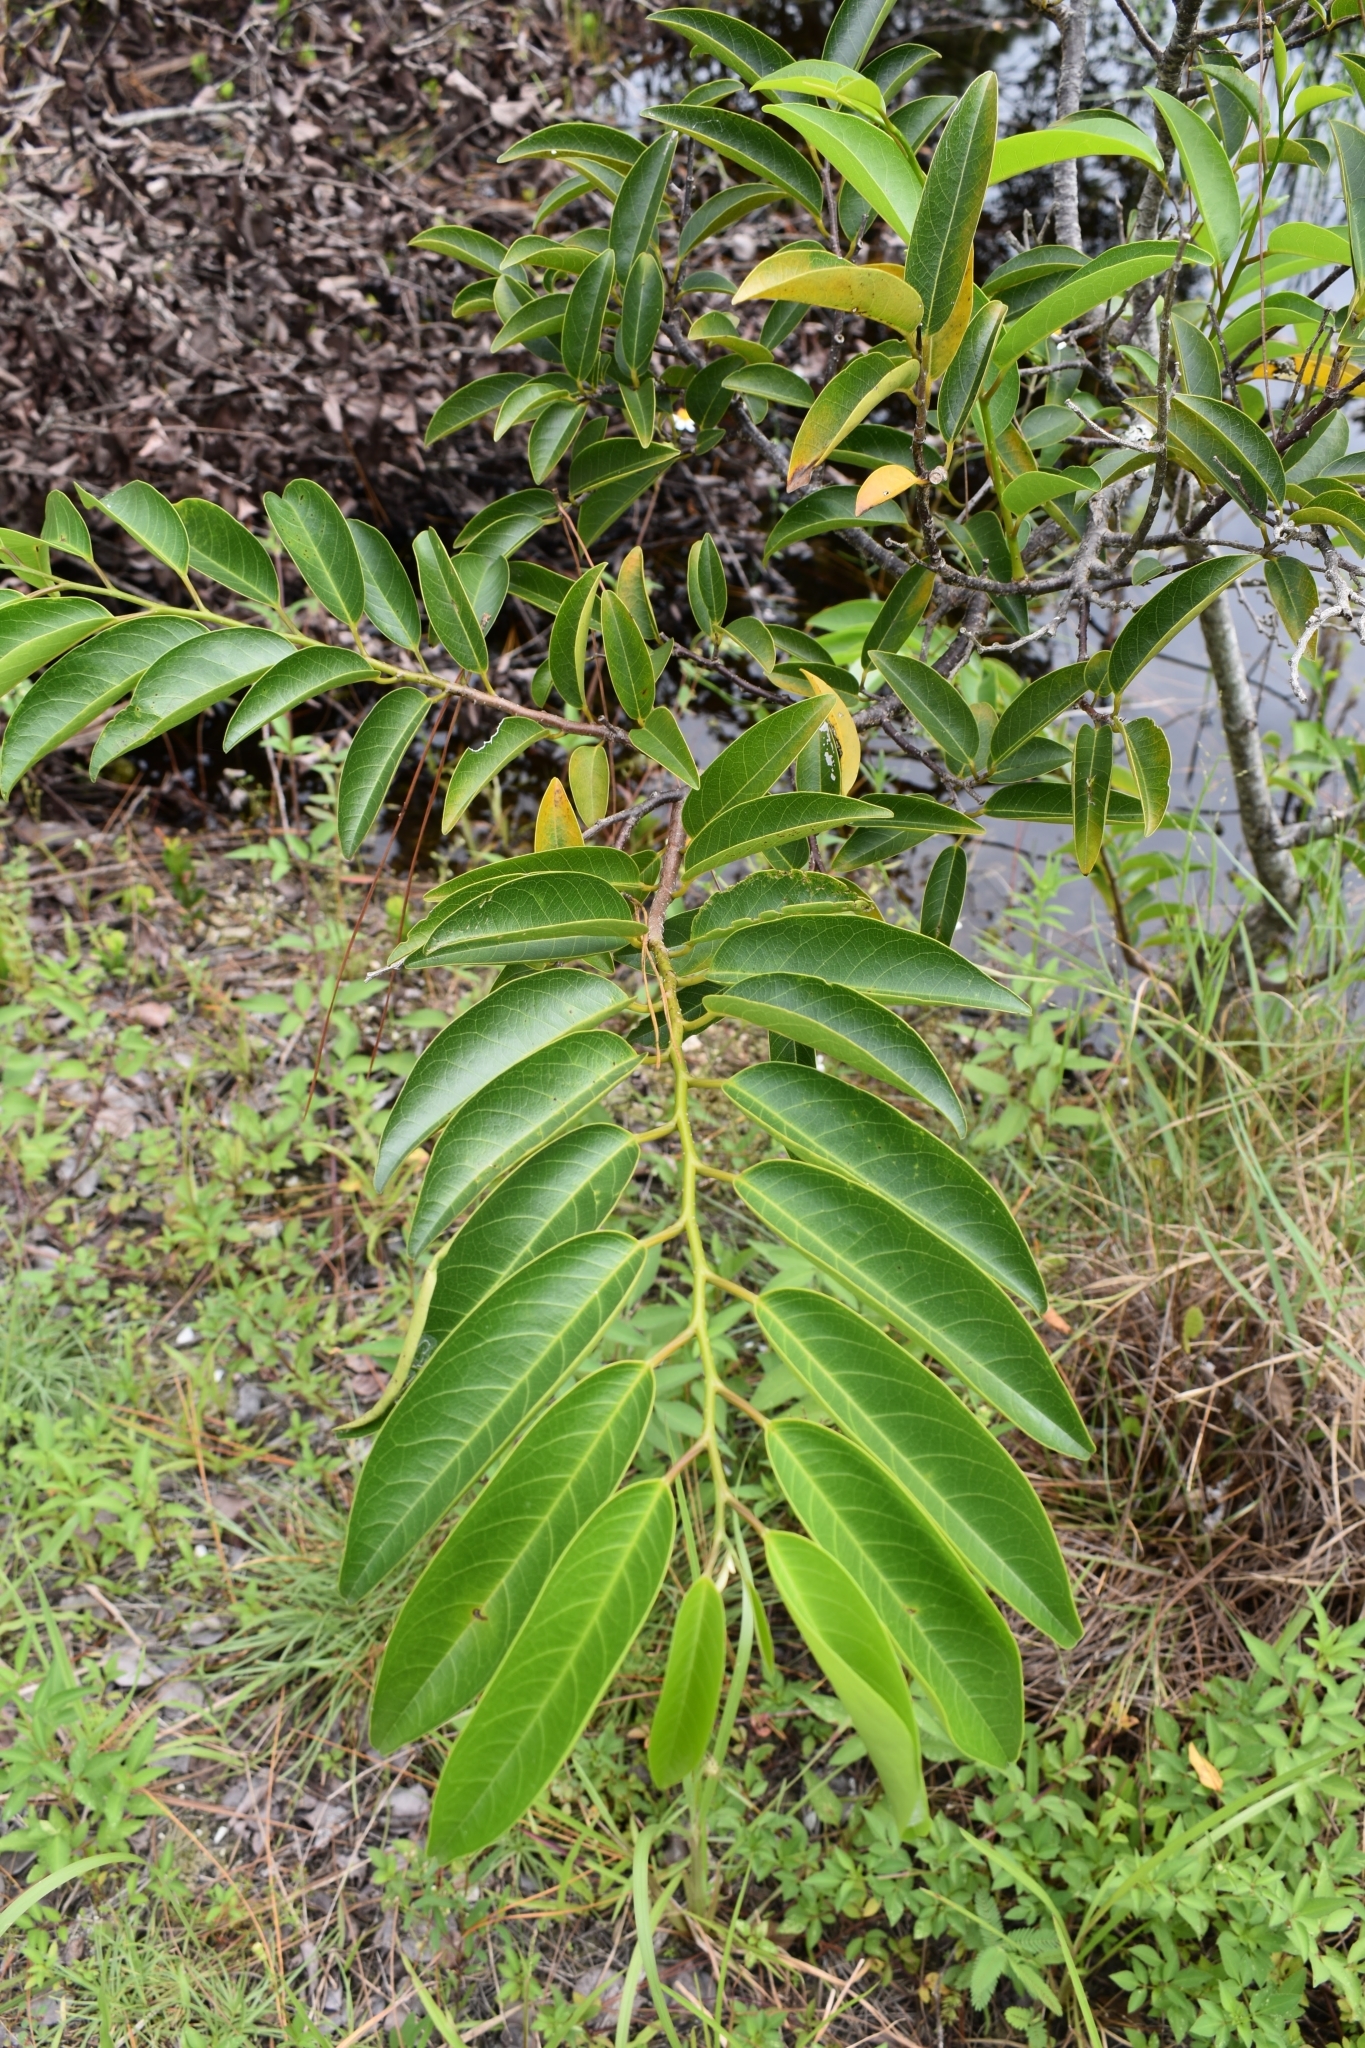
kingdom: Plantae
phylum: Tracheophyta
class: Magnoliopsida
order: Magnoliales
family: Annonaceae
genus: Annona
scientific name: Annona glabra
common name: Monkey apple
